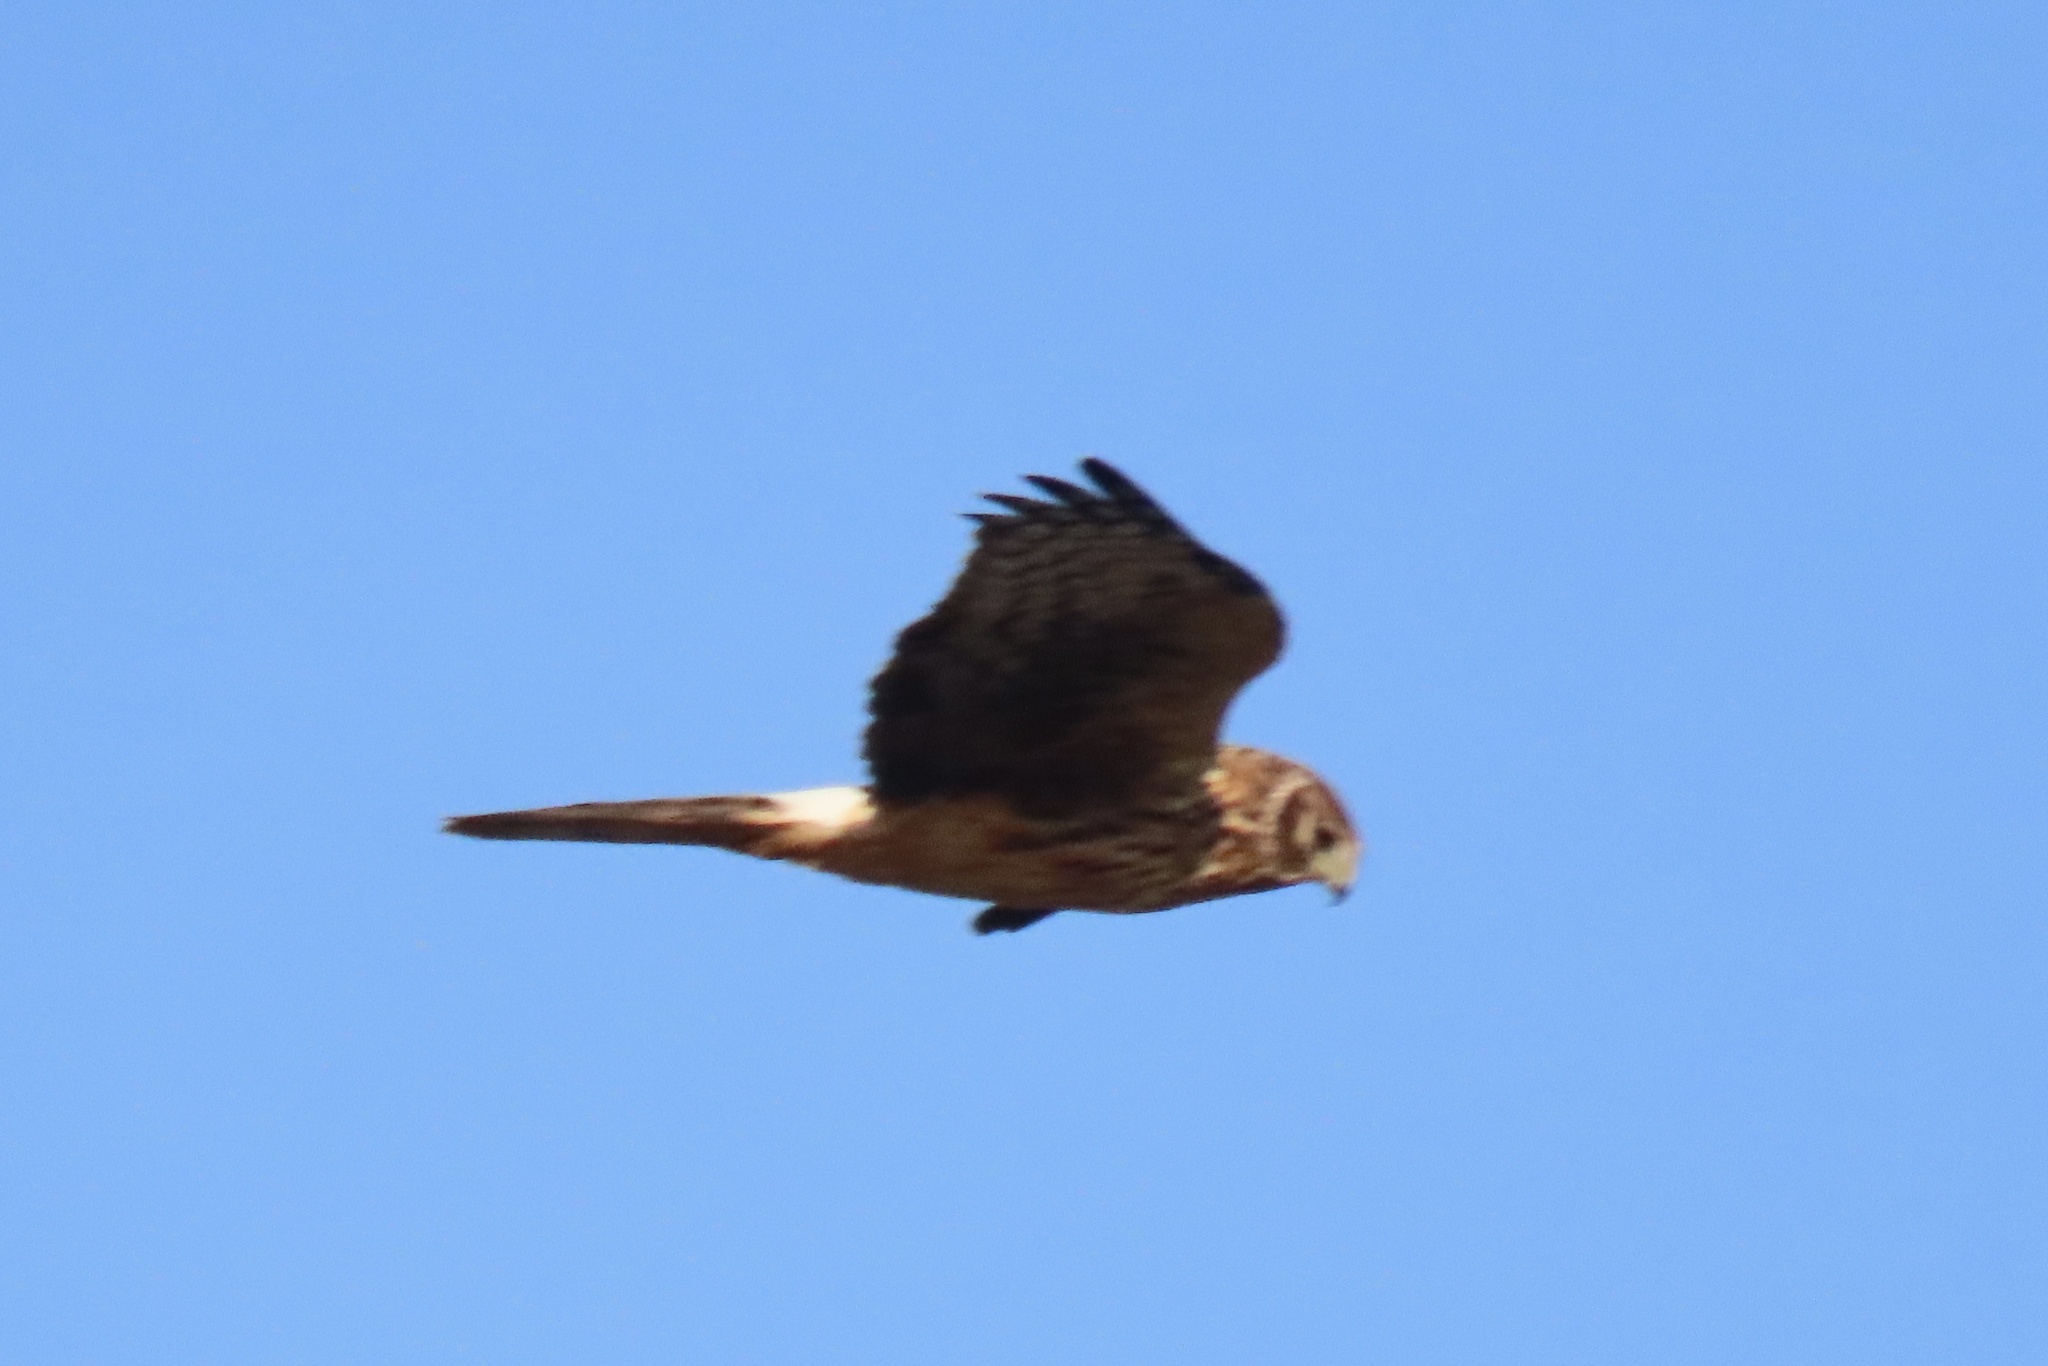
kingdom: Animalia
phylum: Chordata
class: Aves
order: Accipitriformes
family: Accipitridae
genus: Circus
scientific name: Circus cyaneus
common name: Hen harrier
